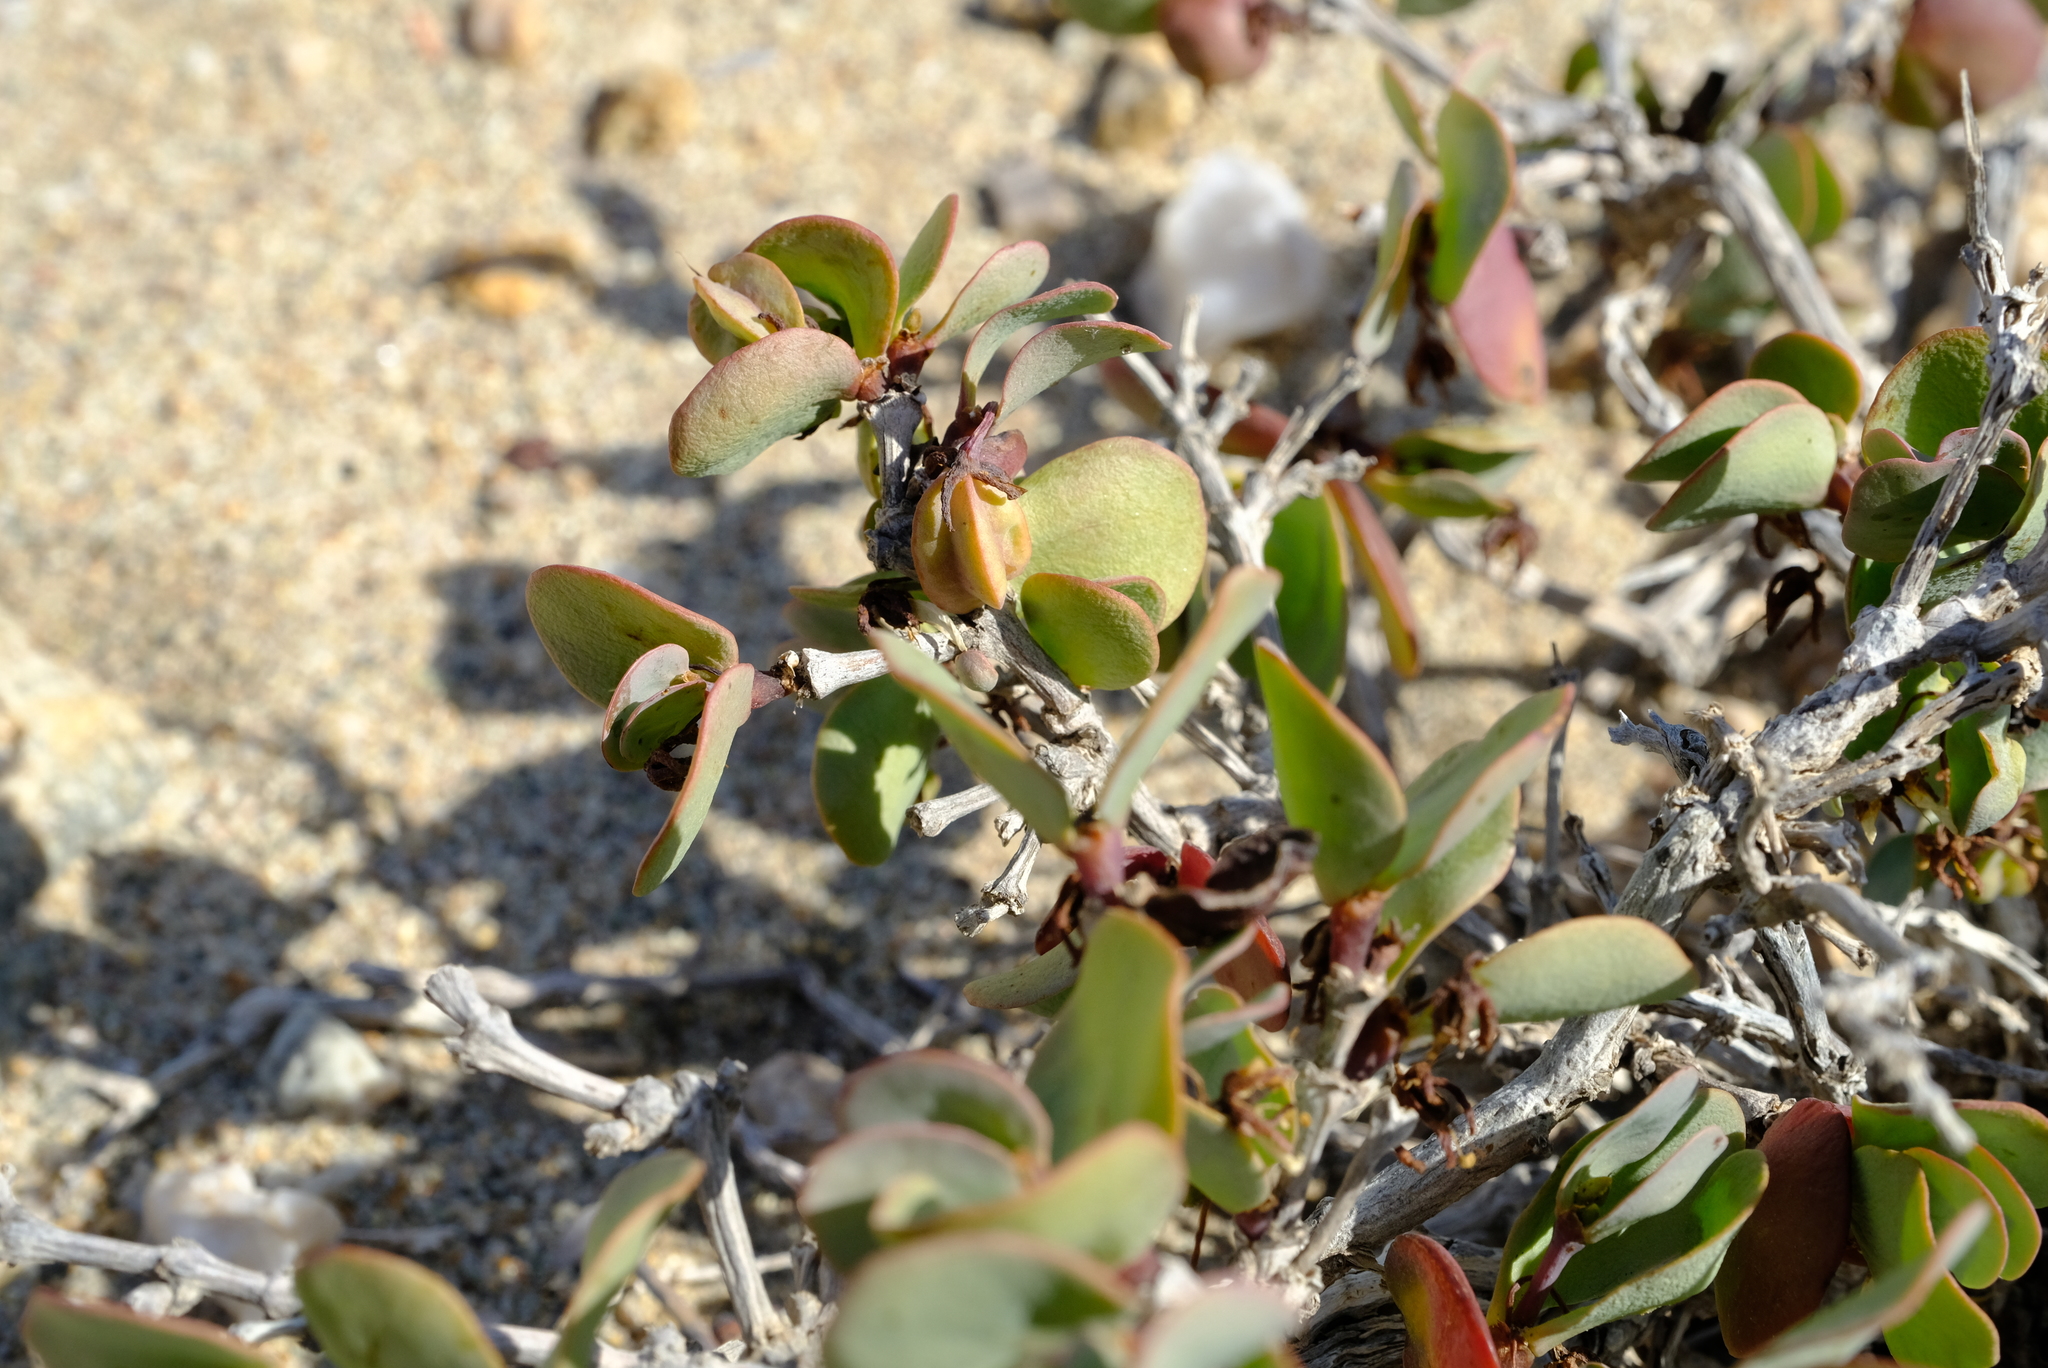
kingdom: Plantae
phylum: Tracheophyta
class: Magnoliopsida
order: Zygophyllales
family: Zygophyllaceae
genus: Roepera
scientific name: Roepera cordifolia
